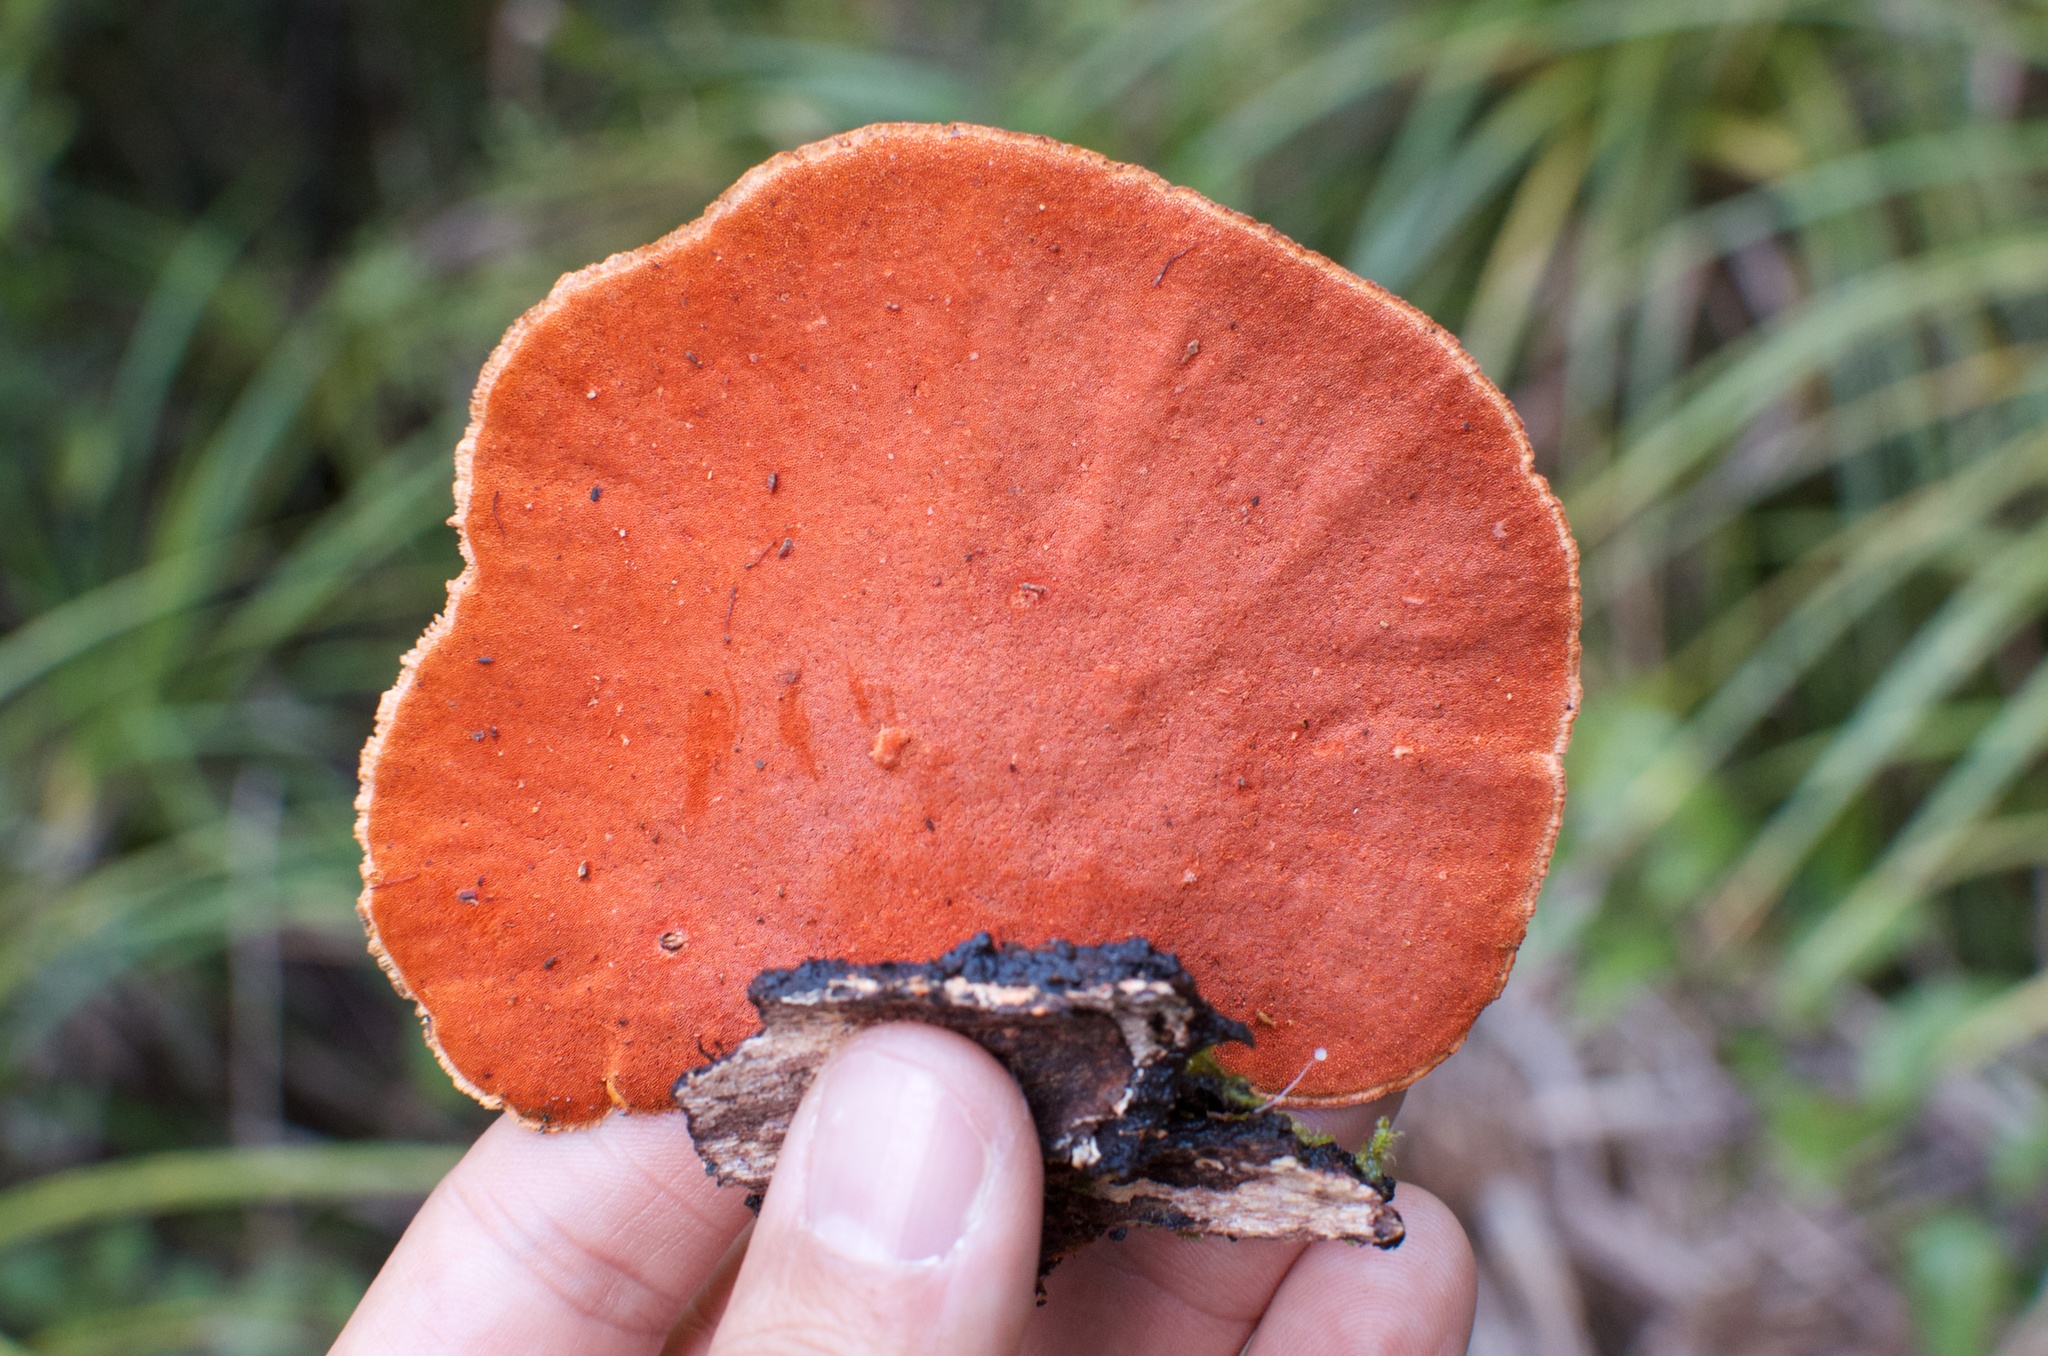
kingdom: Fungi
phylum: Basidiomycota
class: Agaricomycetes
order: Polyporales
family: Polyporaceae
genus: Trametes
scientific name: Trametes coccinea
